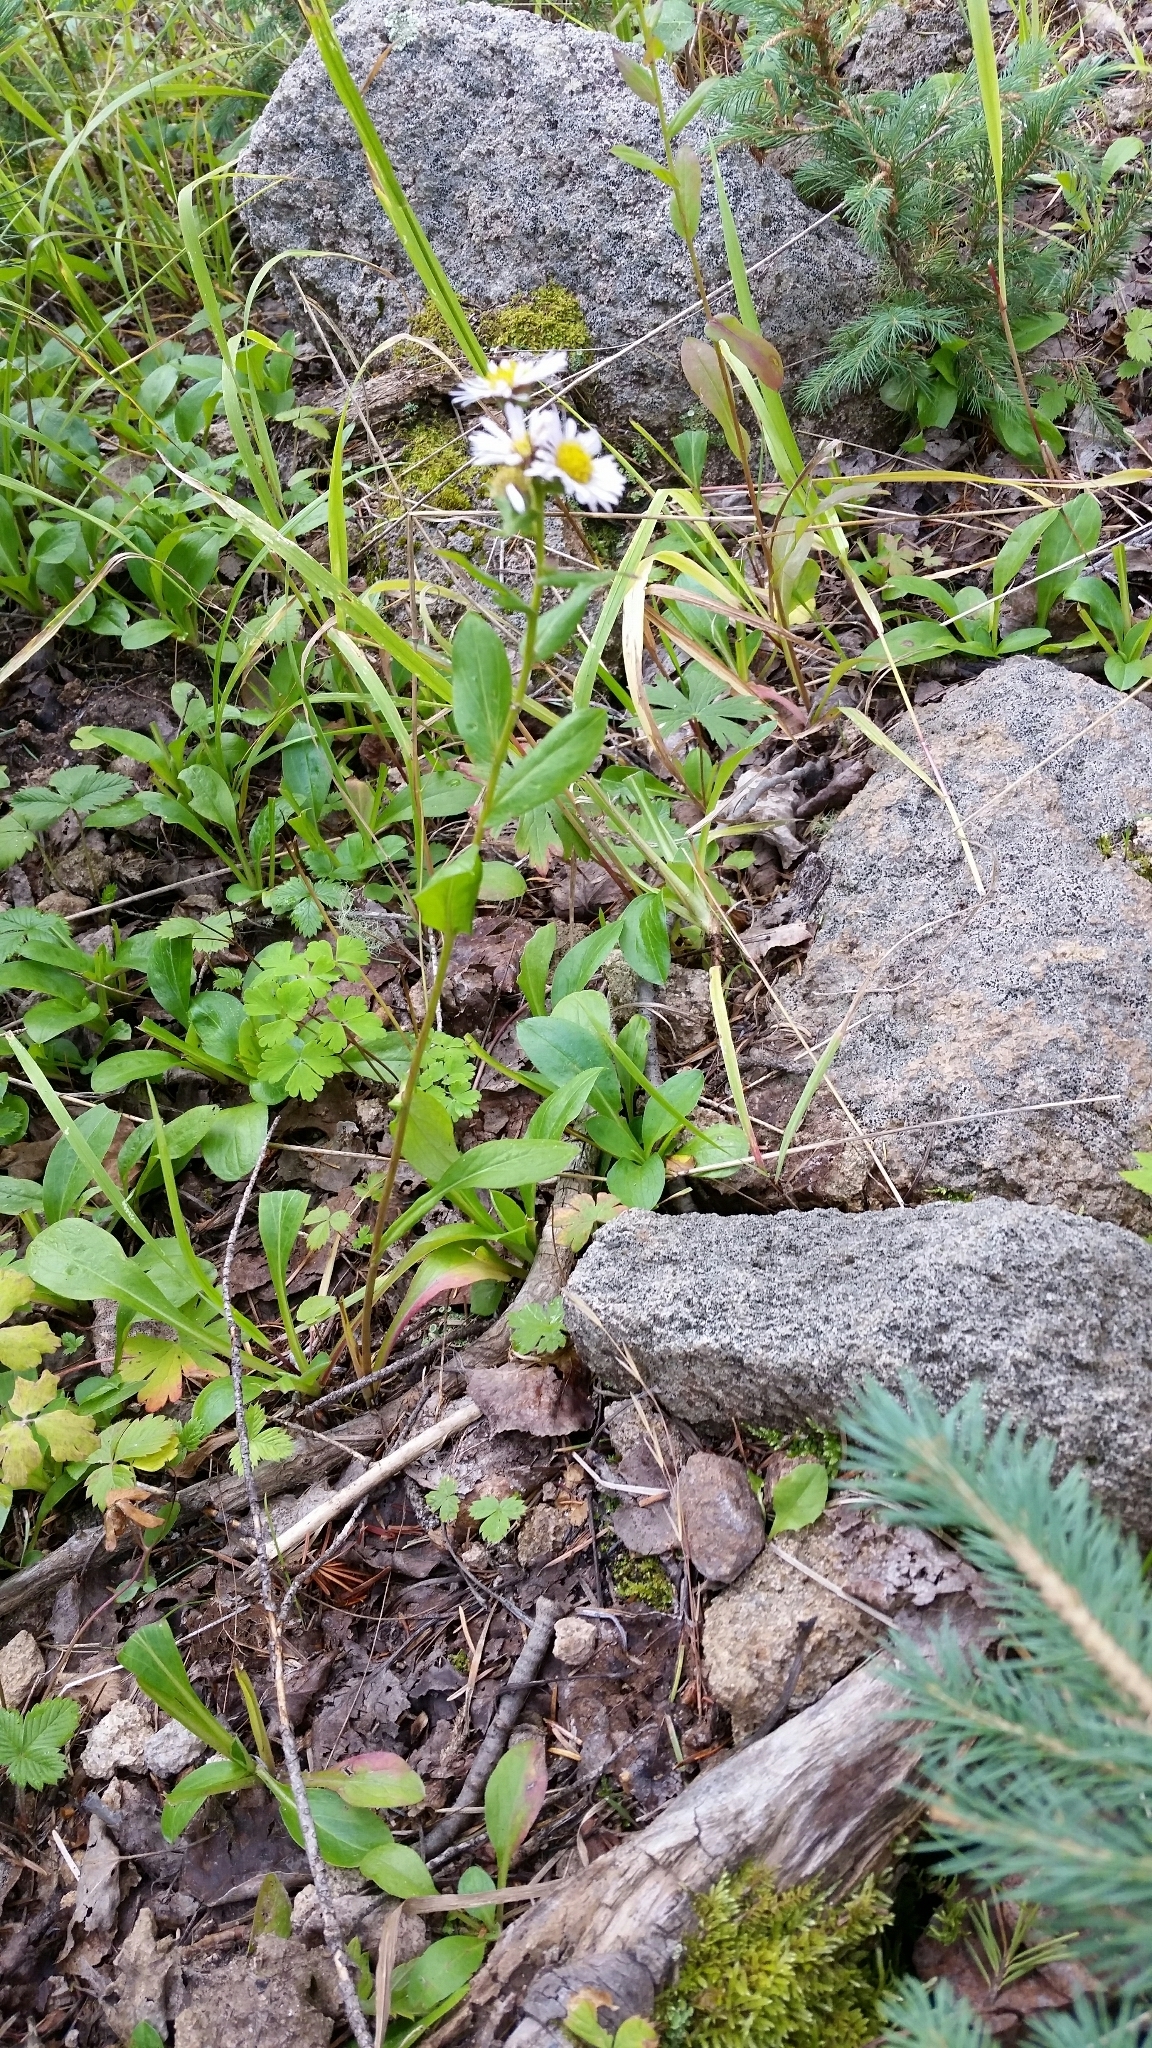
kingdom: Plantae
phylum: Tracheophyta
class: Magnoliopsida
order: Asterales
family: Asteraceae
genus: Erigeron
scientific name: Erigeron eximius
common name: Spruce-fir fleabane
